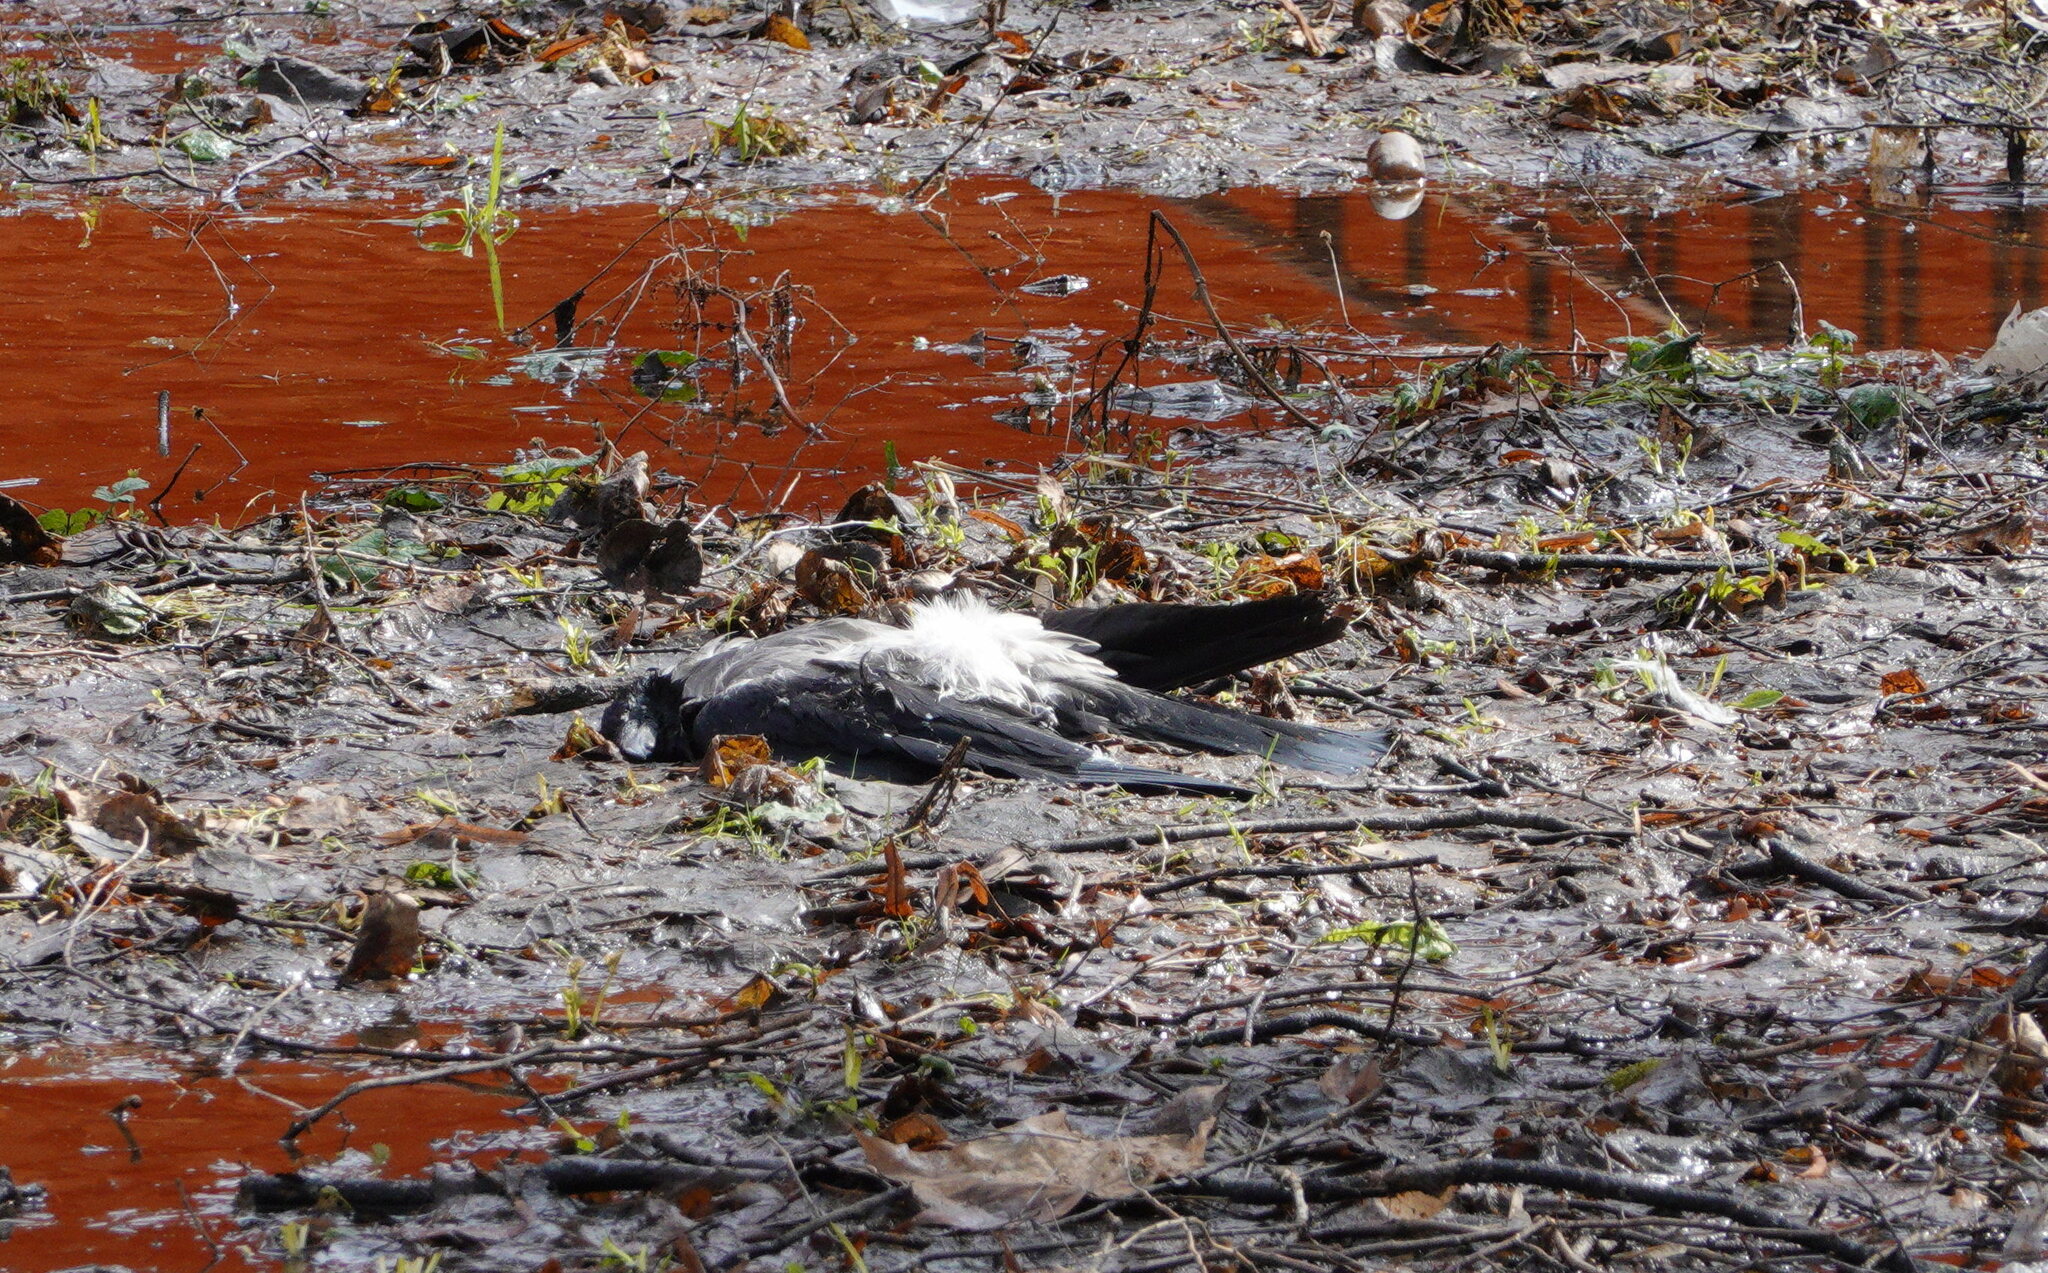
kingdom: Animalia
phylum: Chordata
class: Aves
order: Passeriformes
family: Corvidae
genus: Corvus
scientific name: Corvus cornix
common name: Hooded crow
